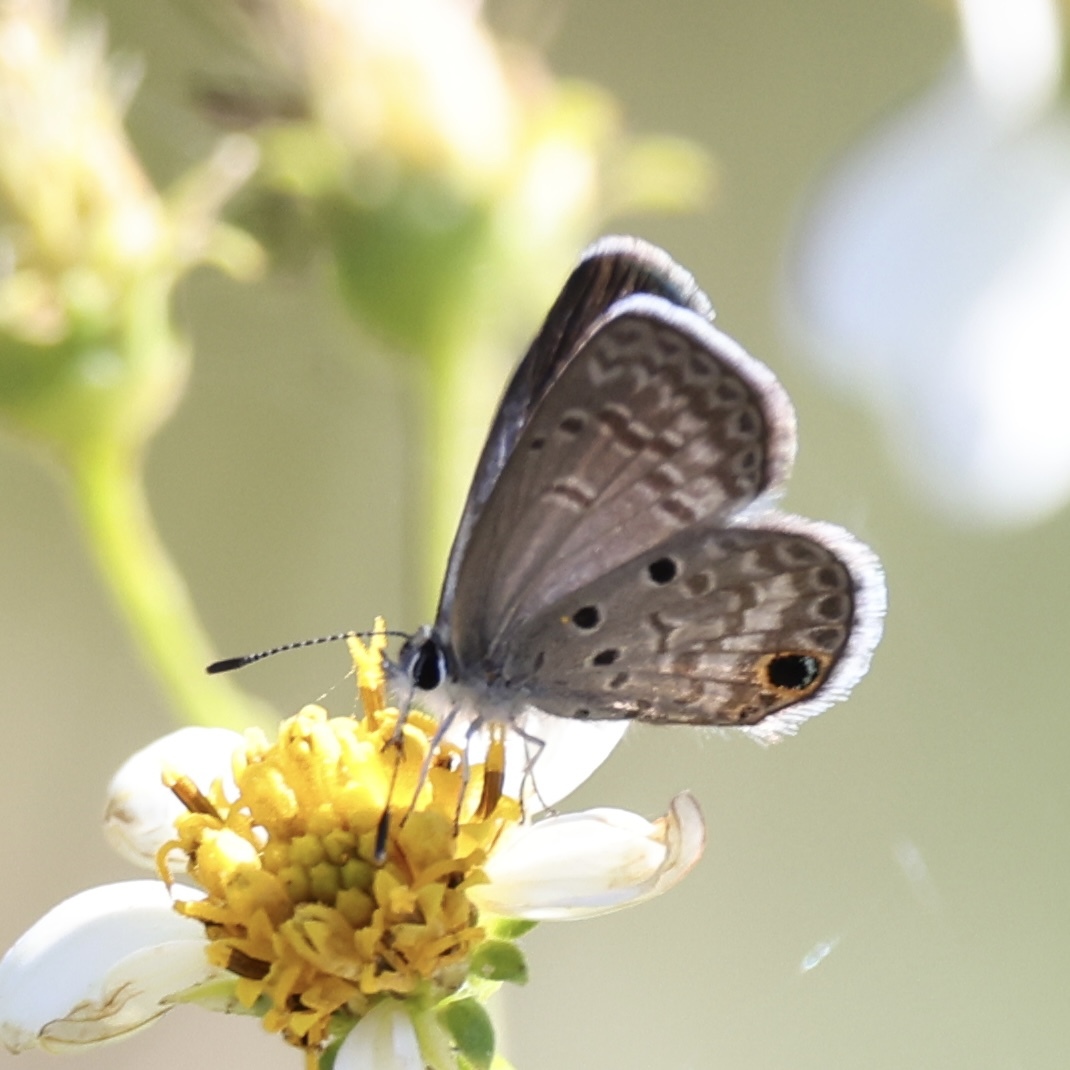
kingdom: Animalia
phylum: Arthropoda
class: Insecta
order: Lepidoptera
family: Lycaenidae
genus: Hemiargus
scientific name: Hemiargus ceraunus
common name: Ceraunus blue
